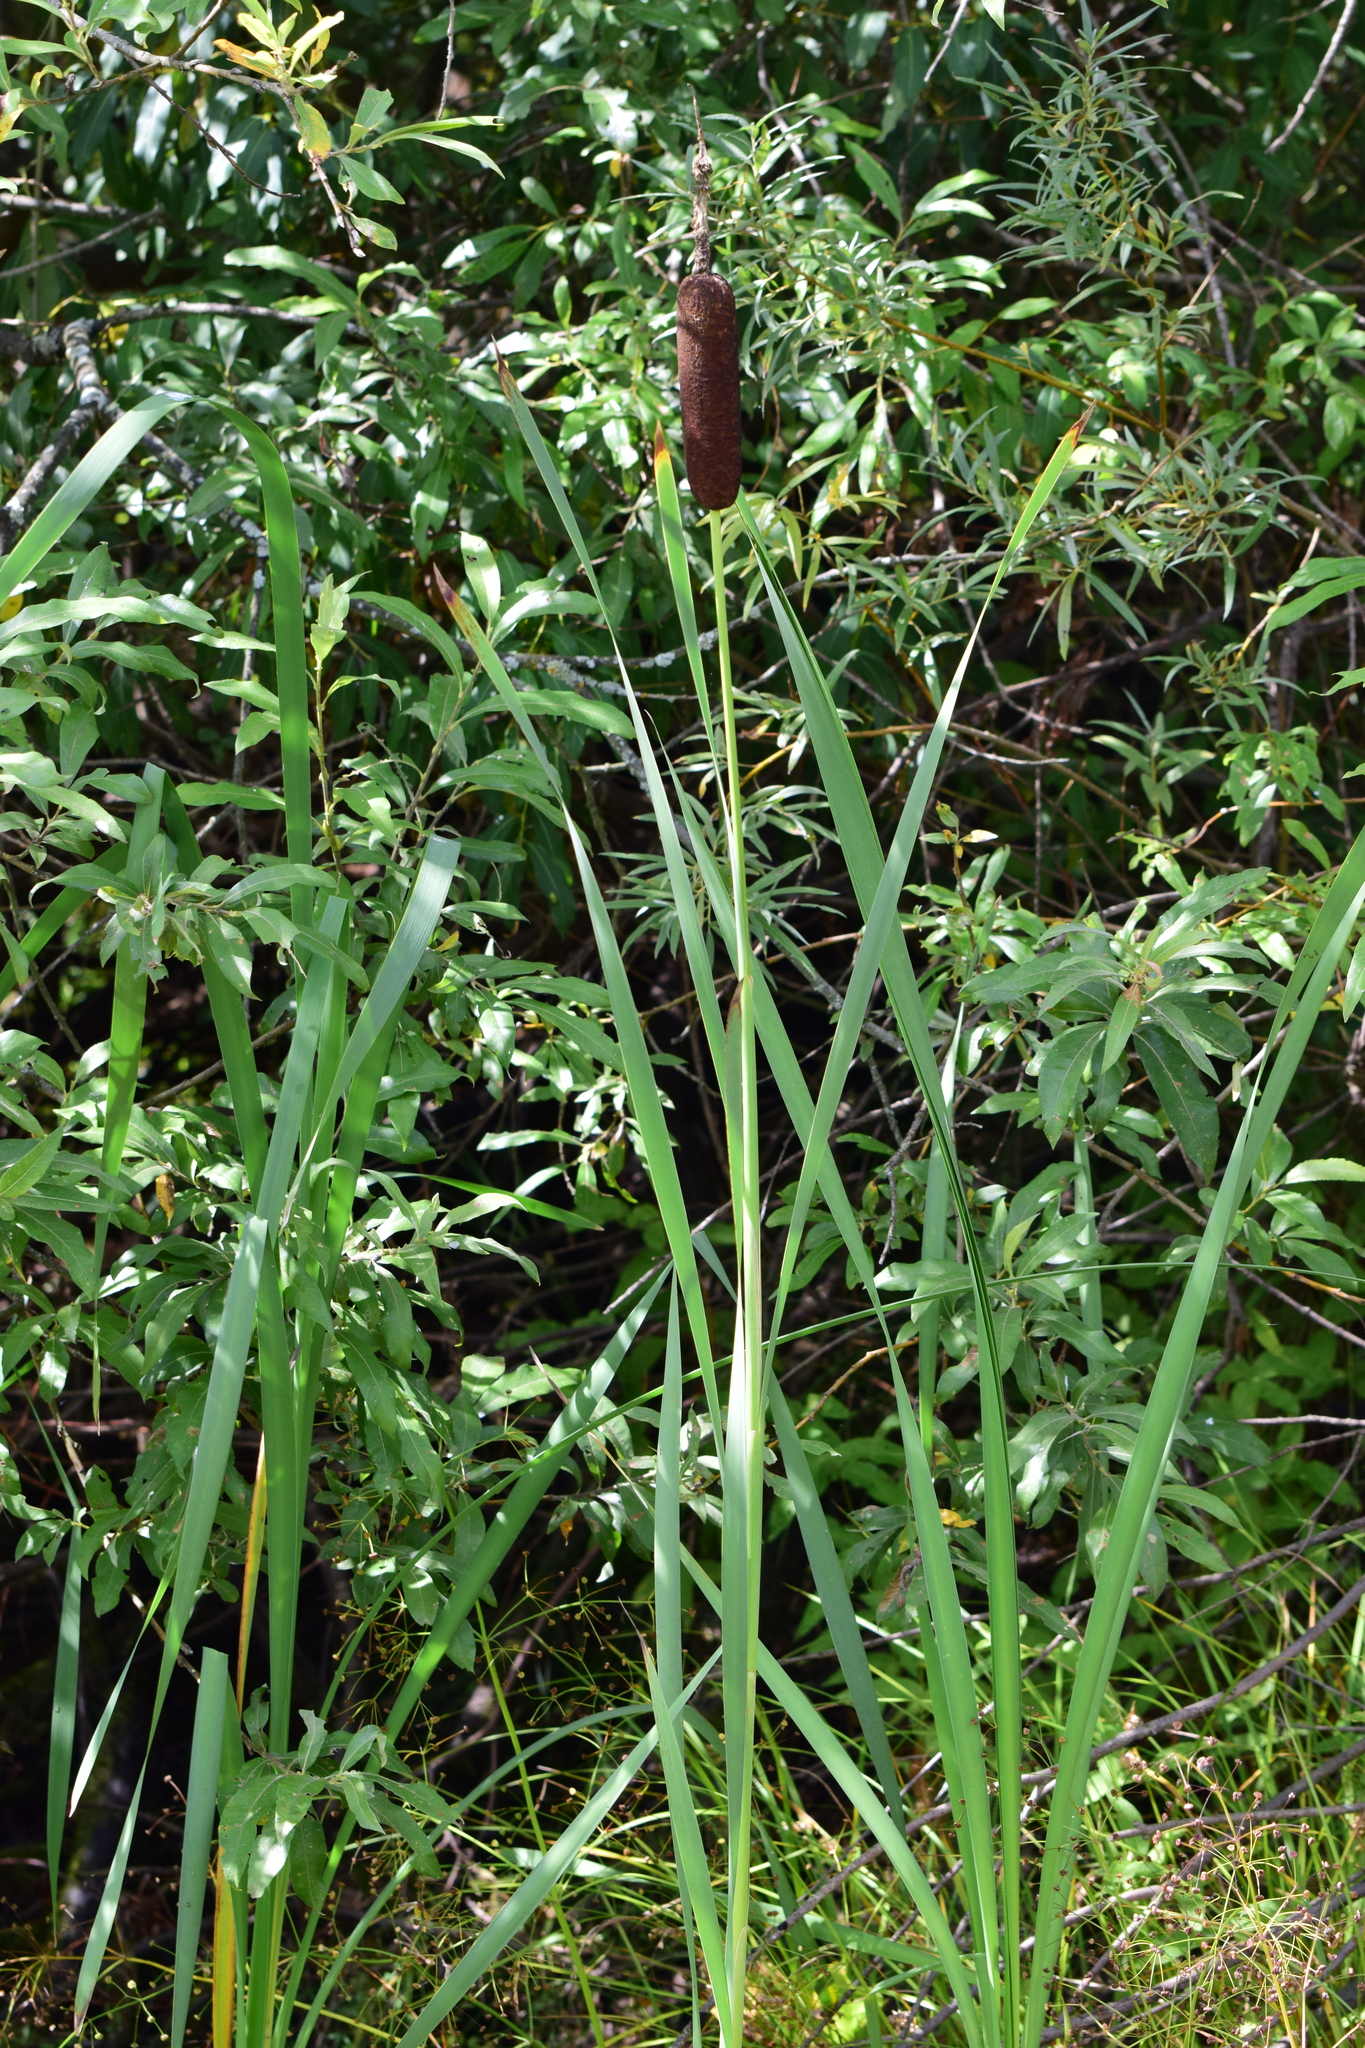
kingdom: Plantae
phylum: Tracheophyta
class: Liliopsida
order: Poales
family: Typhaceae
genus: Typha
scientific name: Typha latifolia
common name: Broadleaf cattail
